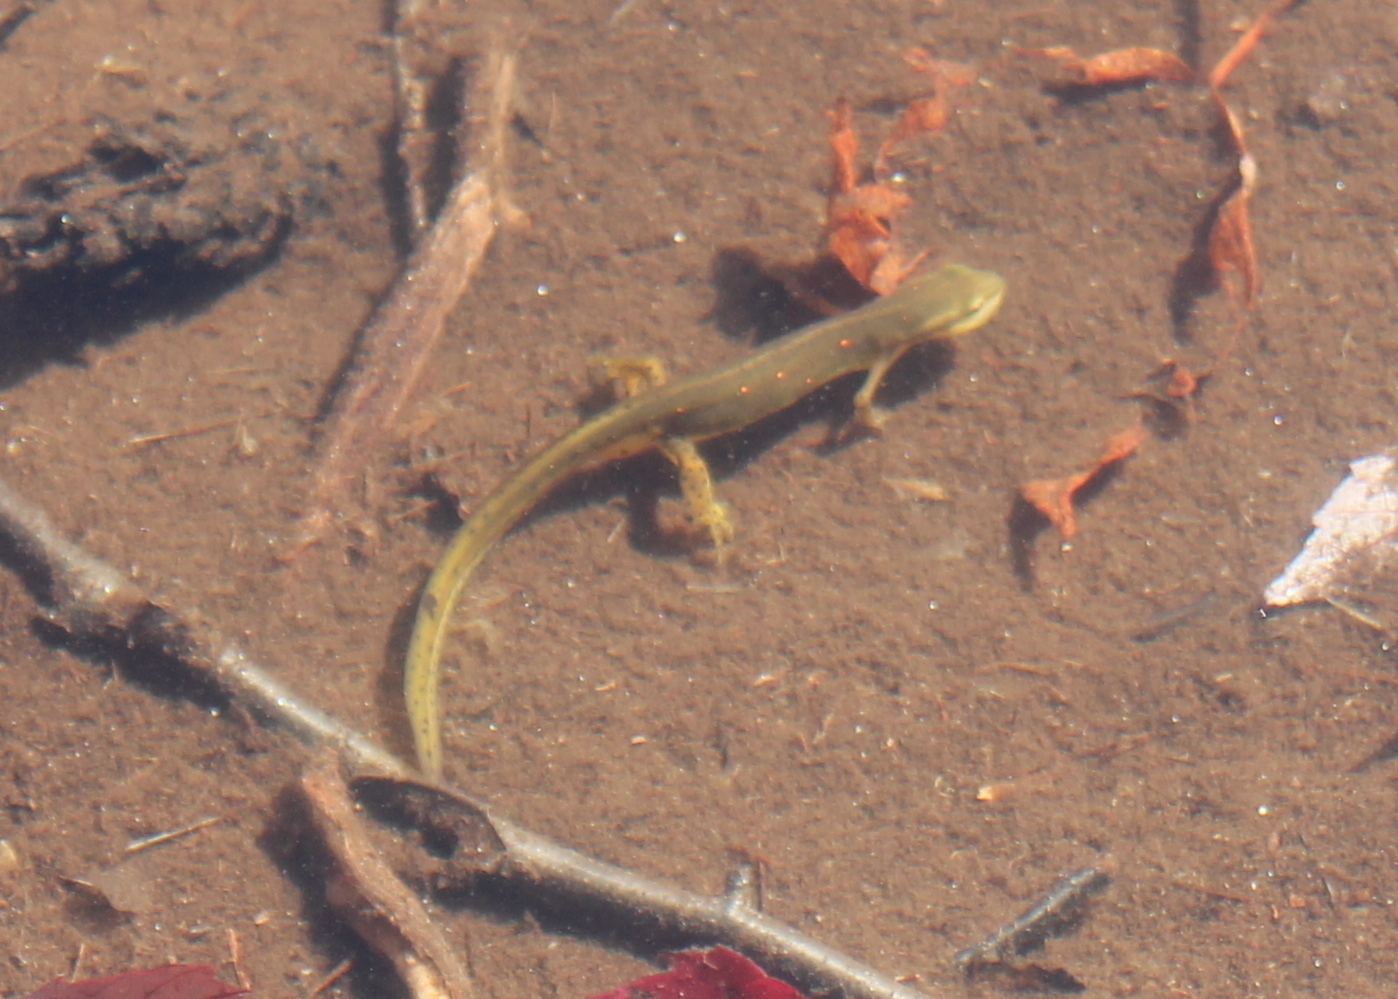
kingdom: Animalia
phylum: Chordata
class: Amphibia
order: Caudata
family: Salamandridae
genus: Notophthalmus
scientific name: Notophthalmus viridescens
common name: Eastern newt
